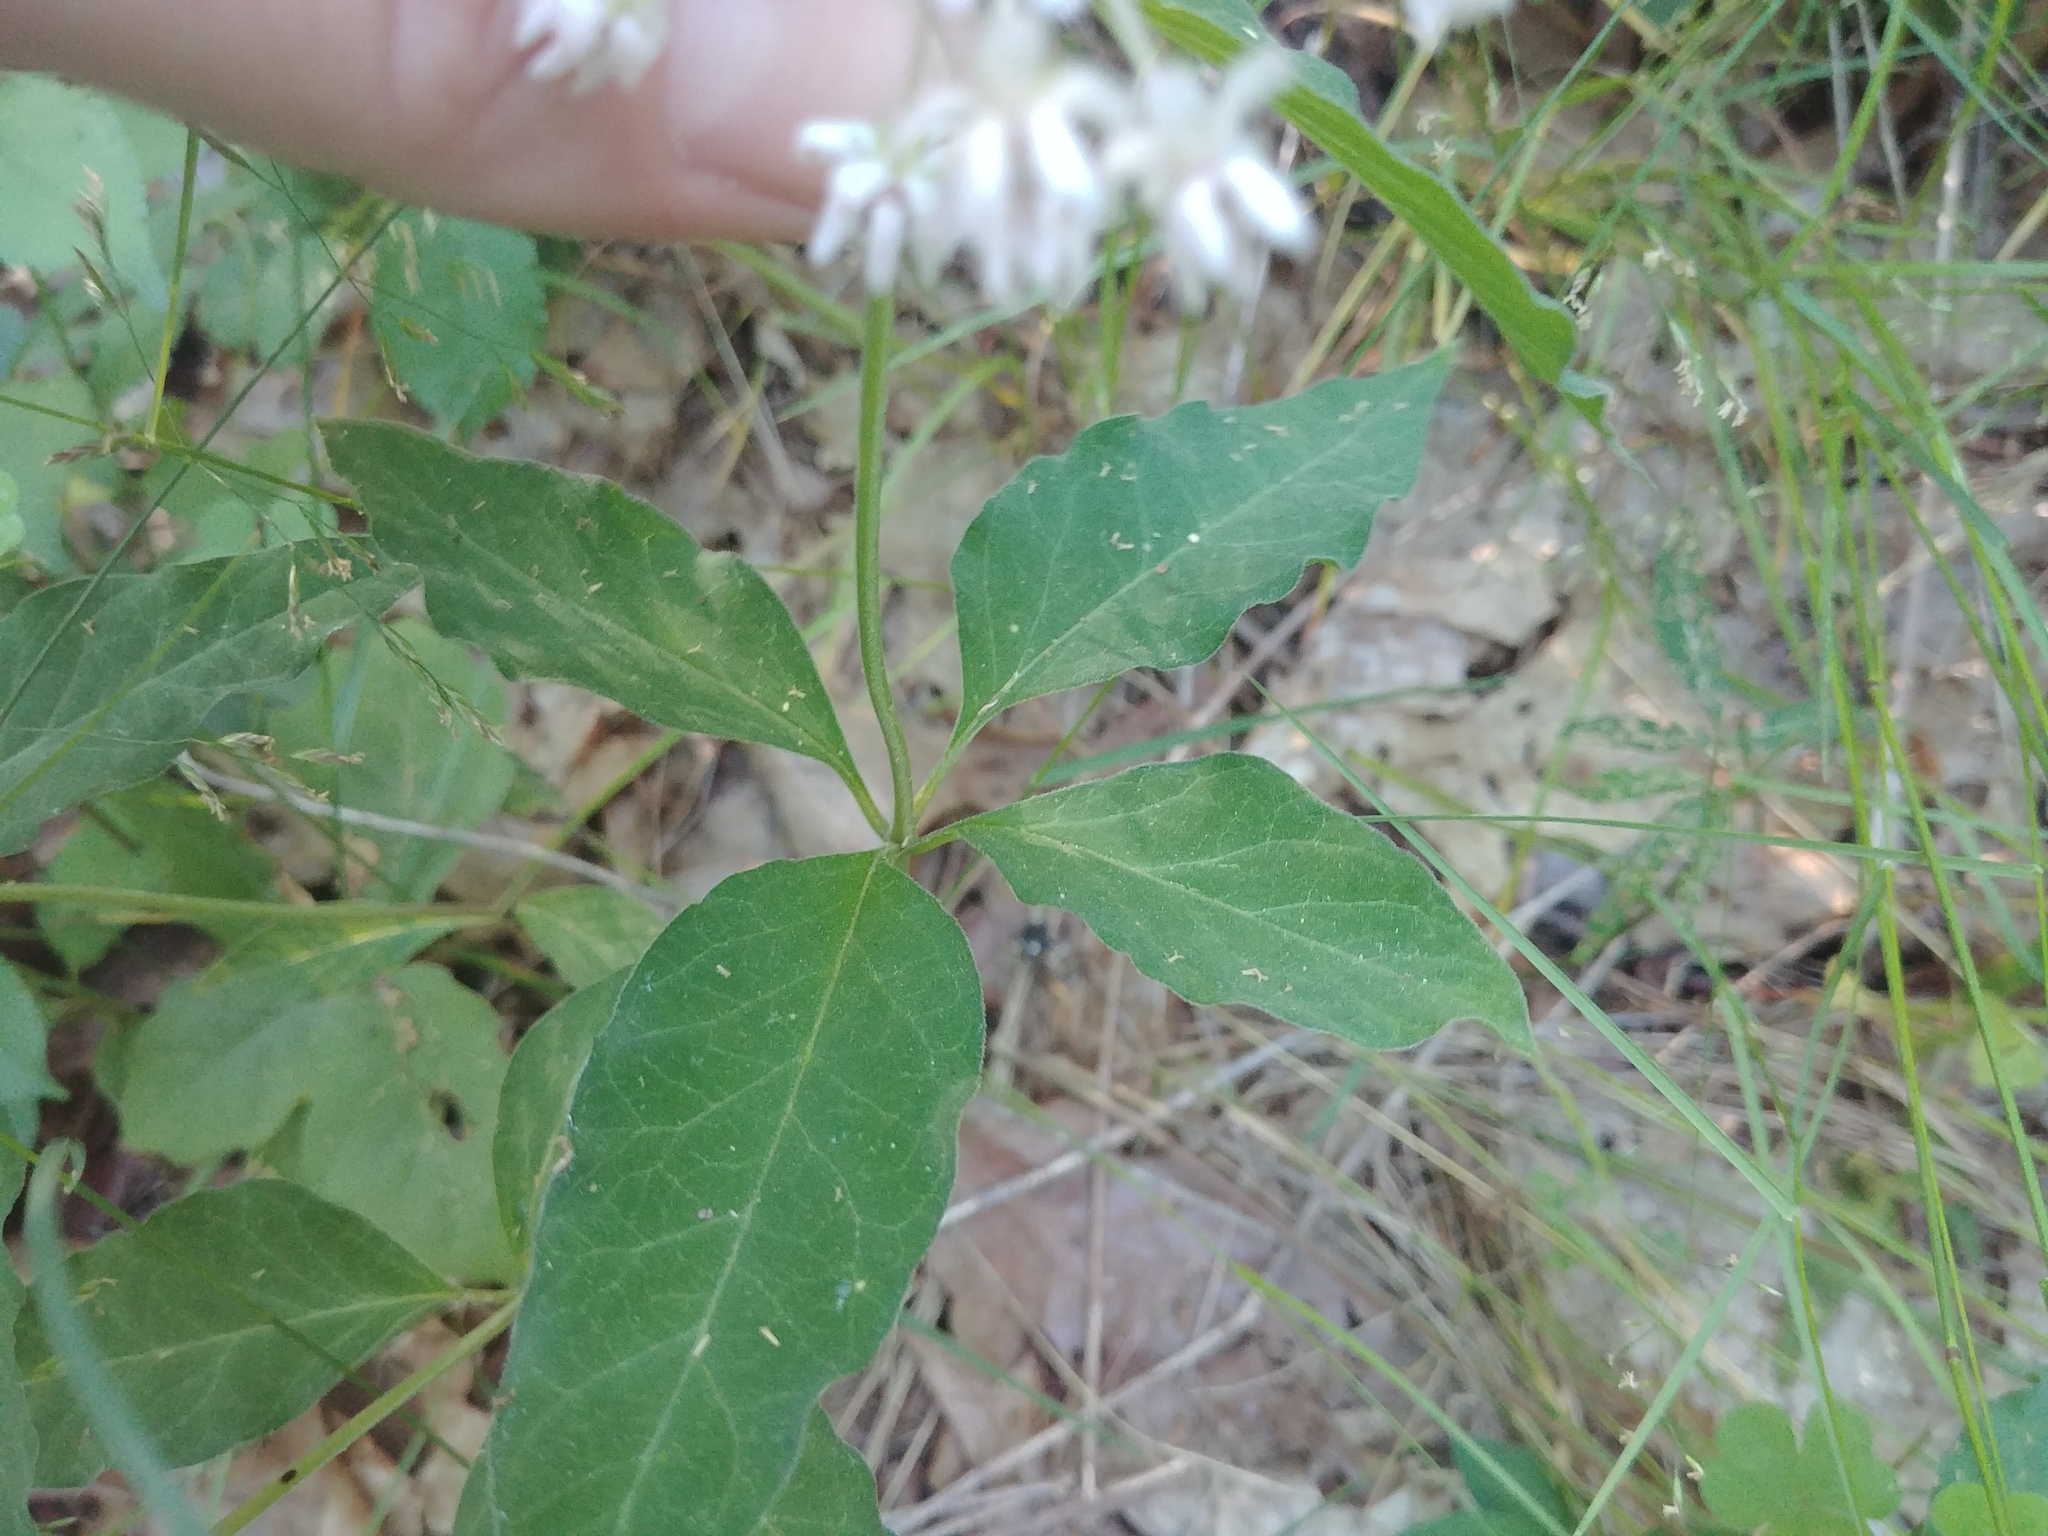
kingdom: Plantae
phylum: Tracheophyta
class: Magnoliopsida
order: Gentianales
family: Apocynaceae
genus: Asclepias
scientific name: Asclepias quadrifolia
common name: Whorled milkweed
